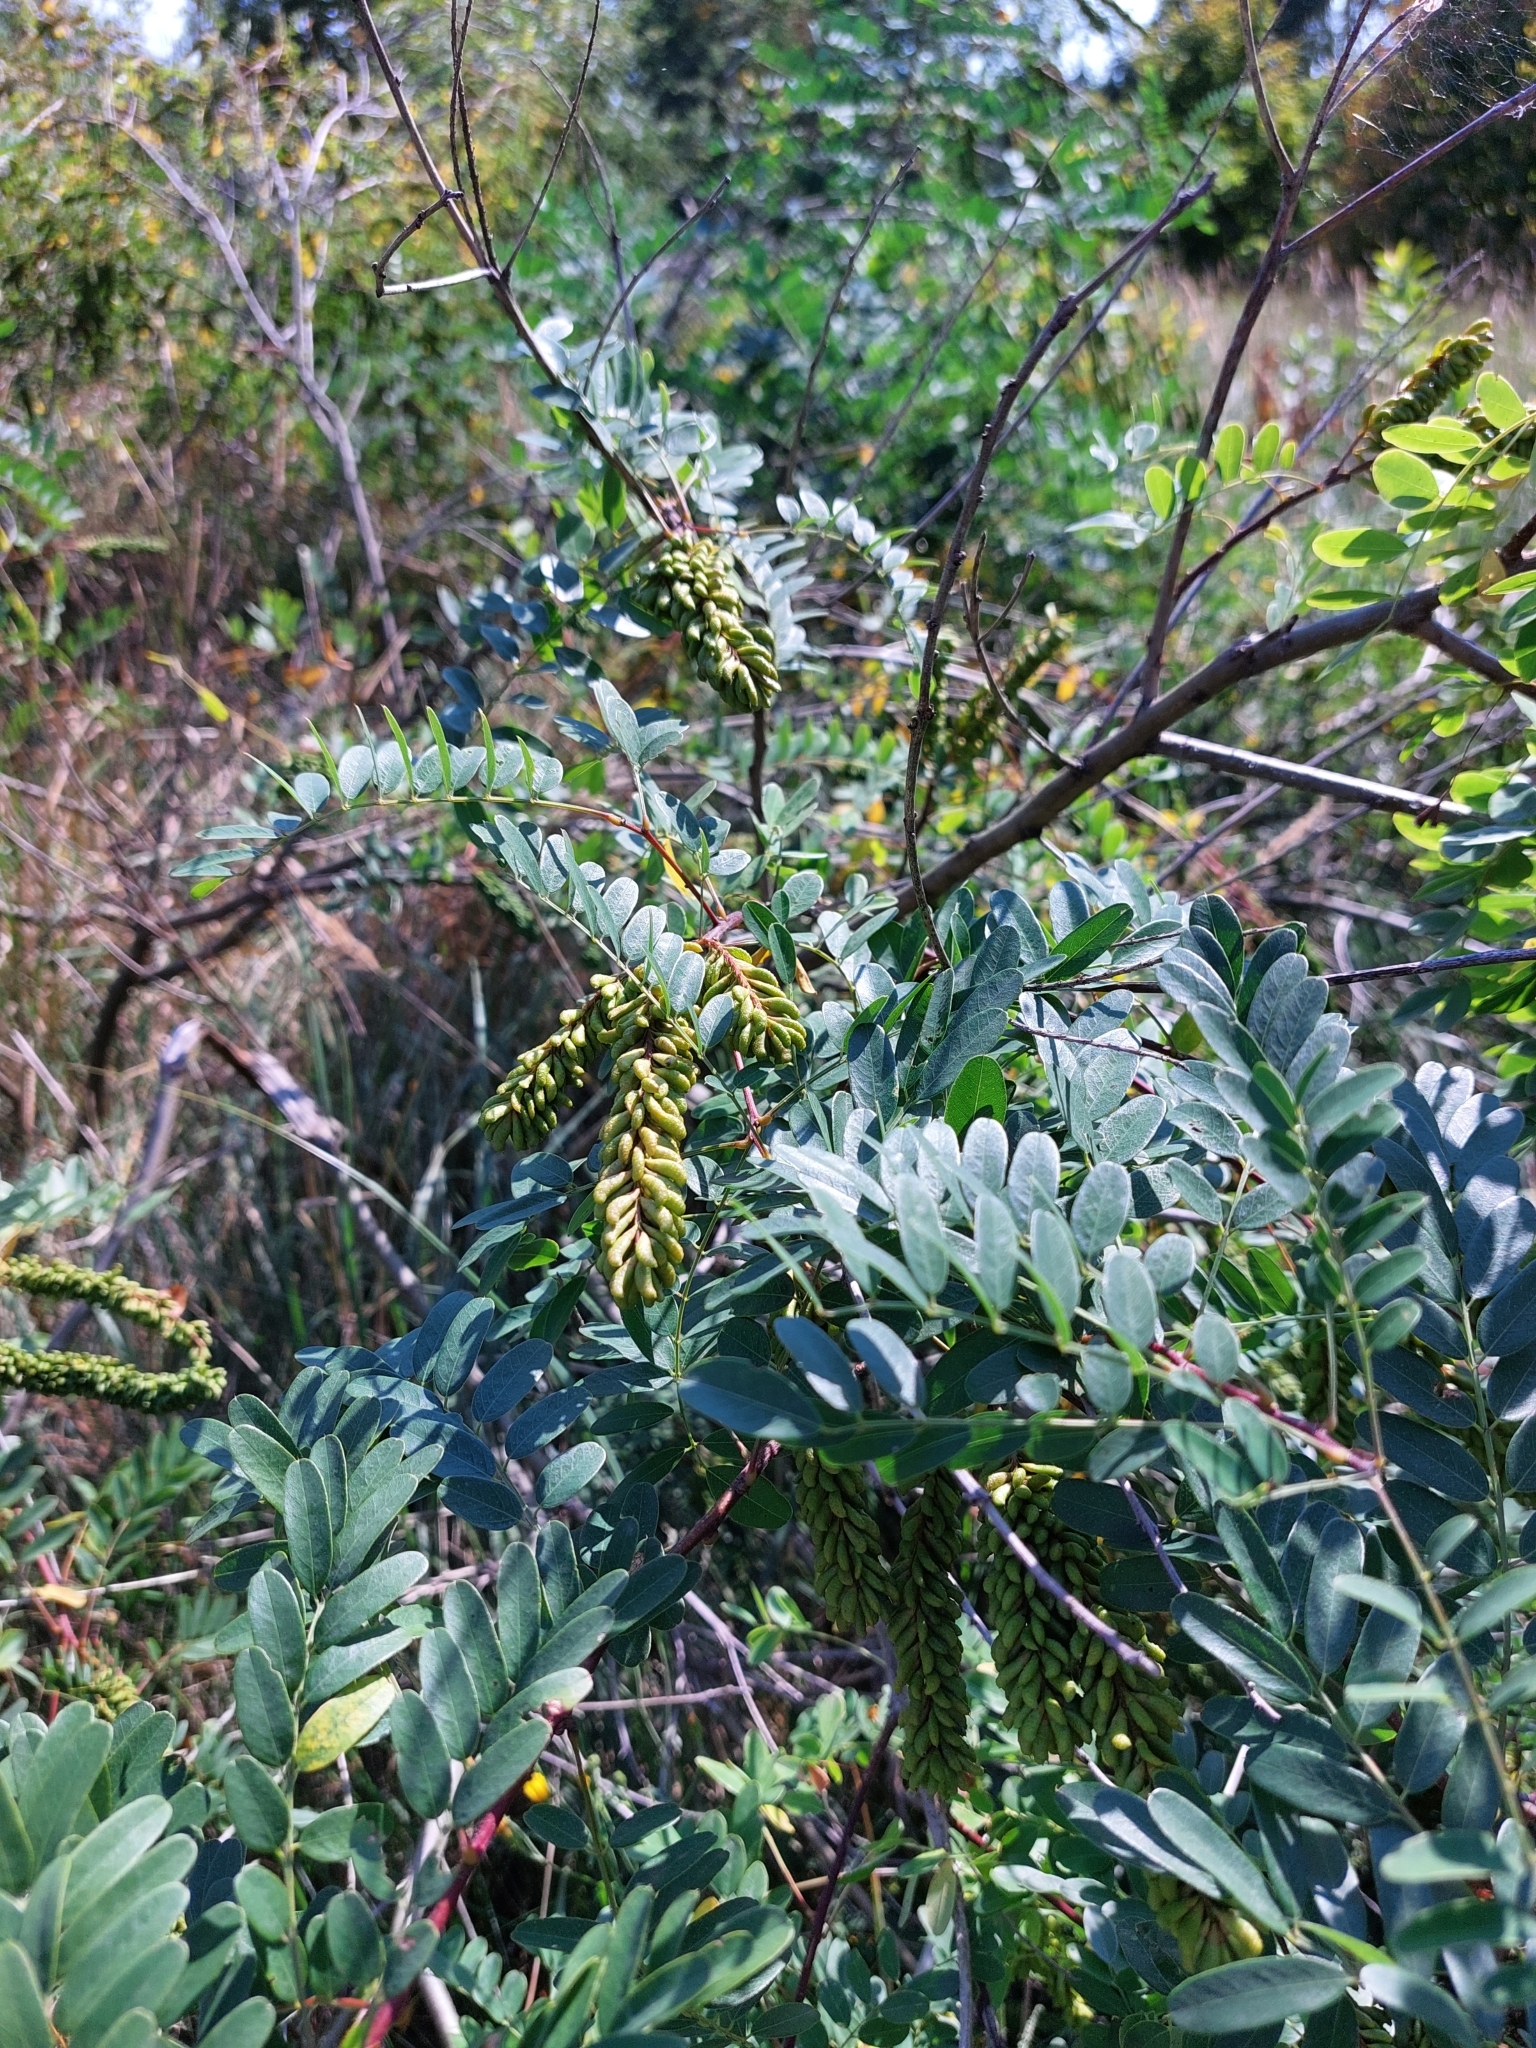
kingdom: Plantae
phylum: Tracheophyta
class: Magnoliopsida
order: Fabales
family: Fabaceae
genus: Amorpha
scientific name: Amorpha fruticosa
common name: False indigo
